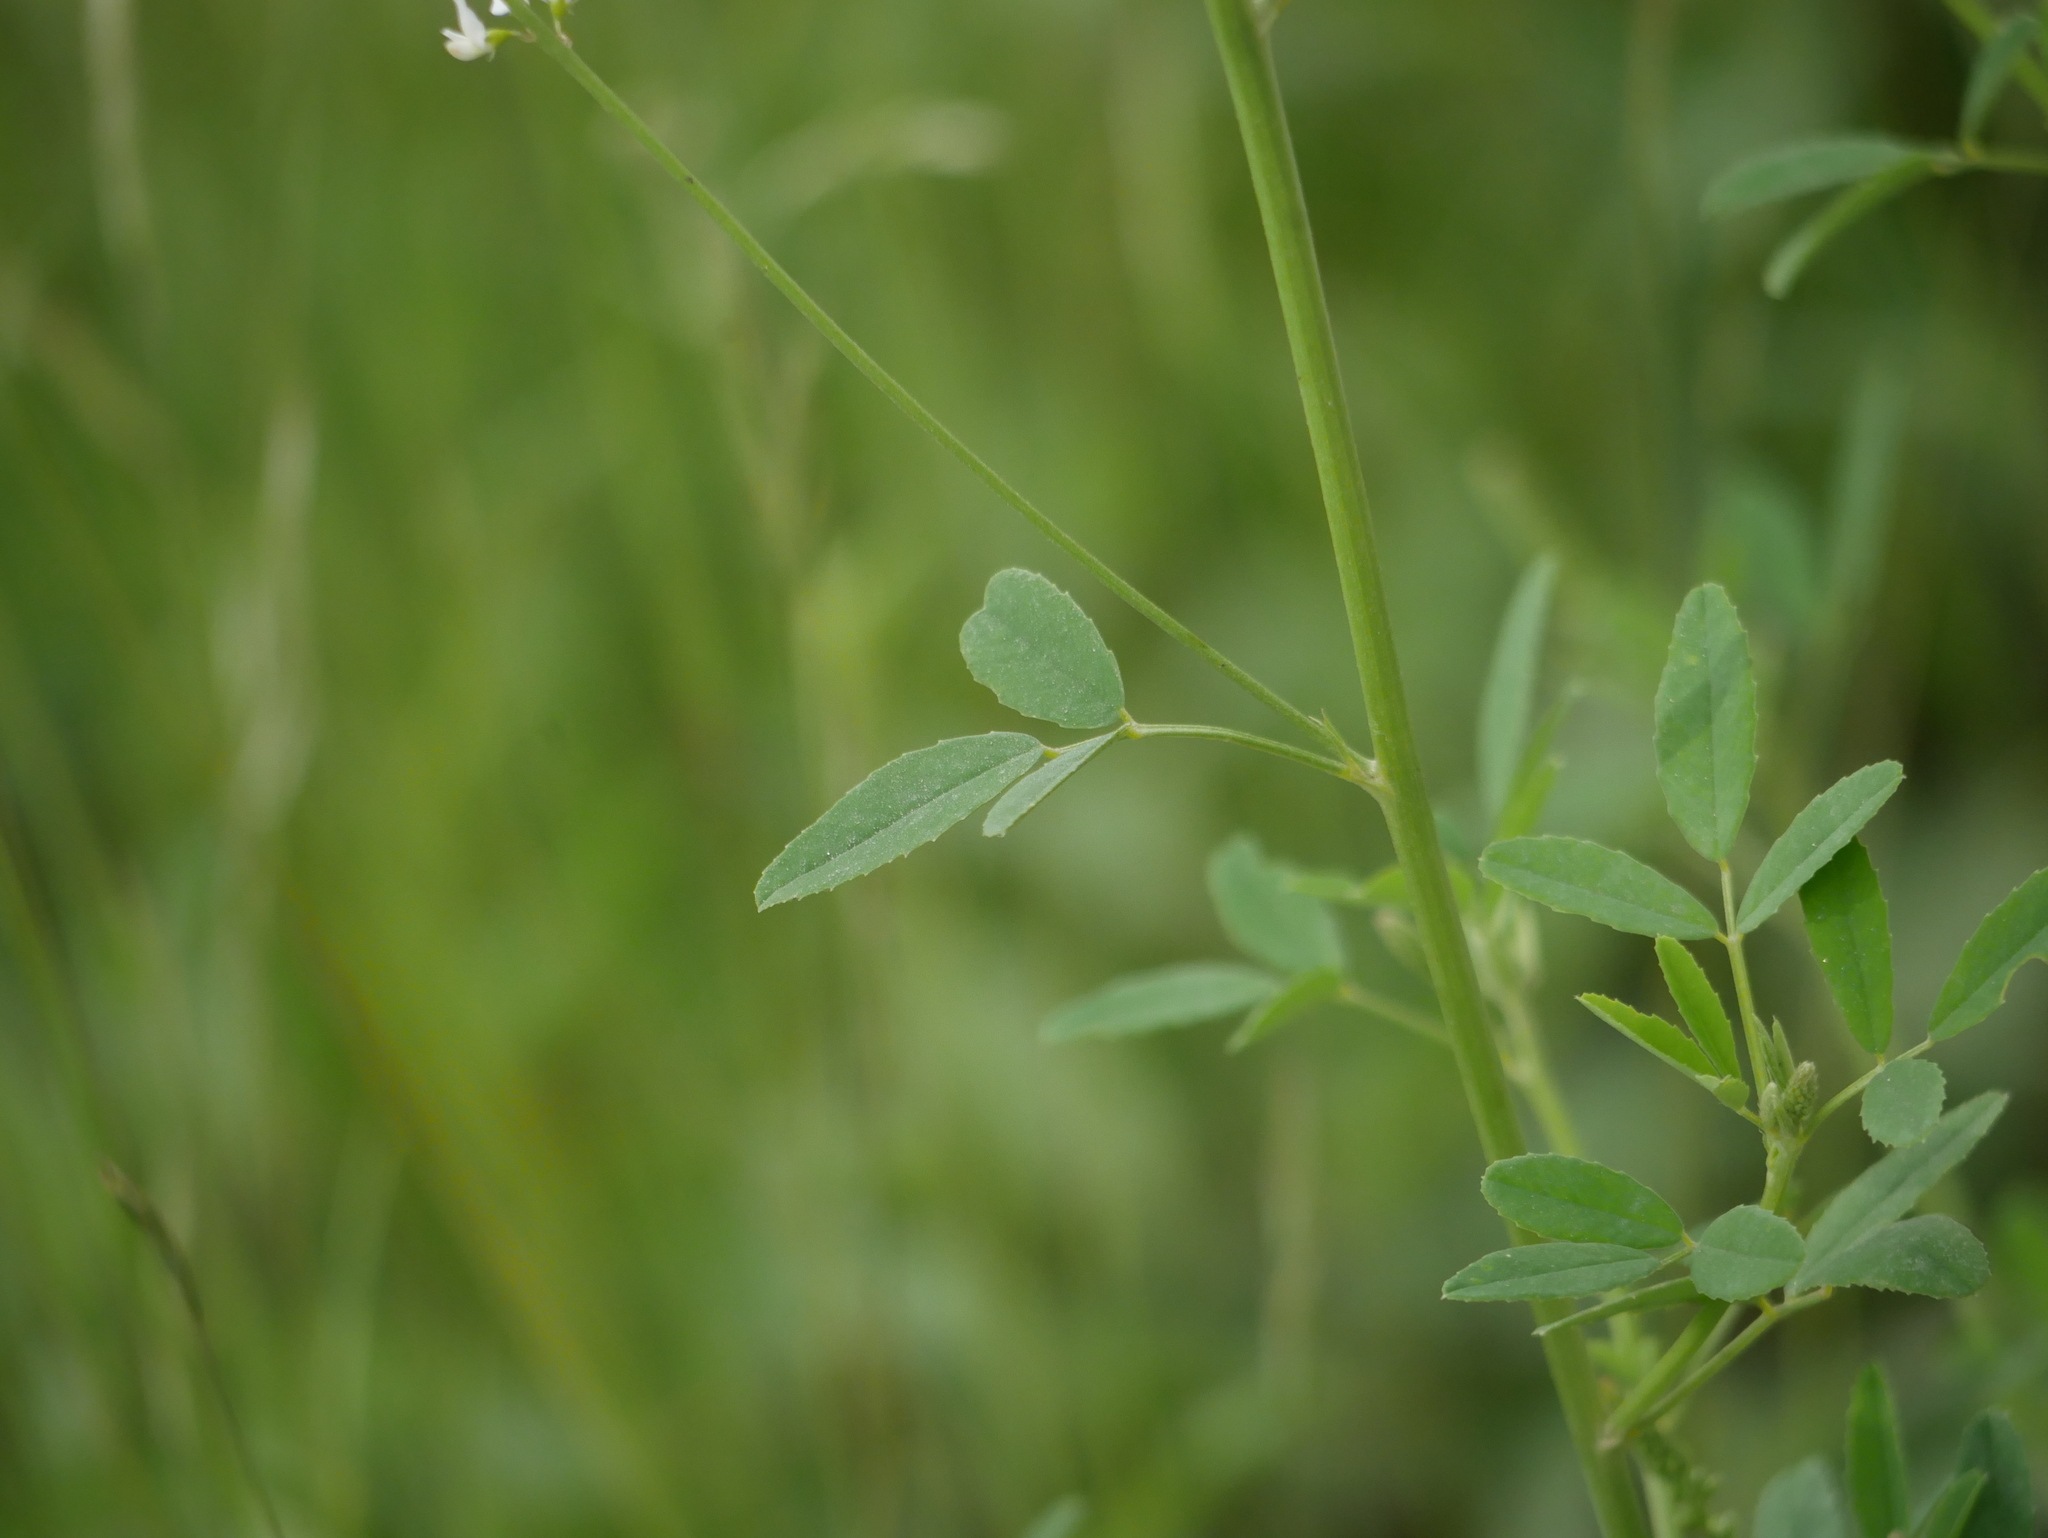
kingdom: Plantae
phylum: Tracheophyta
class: Magnoliopsida
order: Fabales
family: Fabaceae
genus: Melilotus
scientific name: Melilotus albus
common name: White melilot
